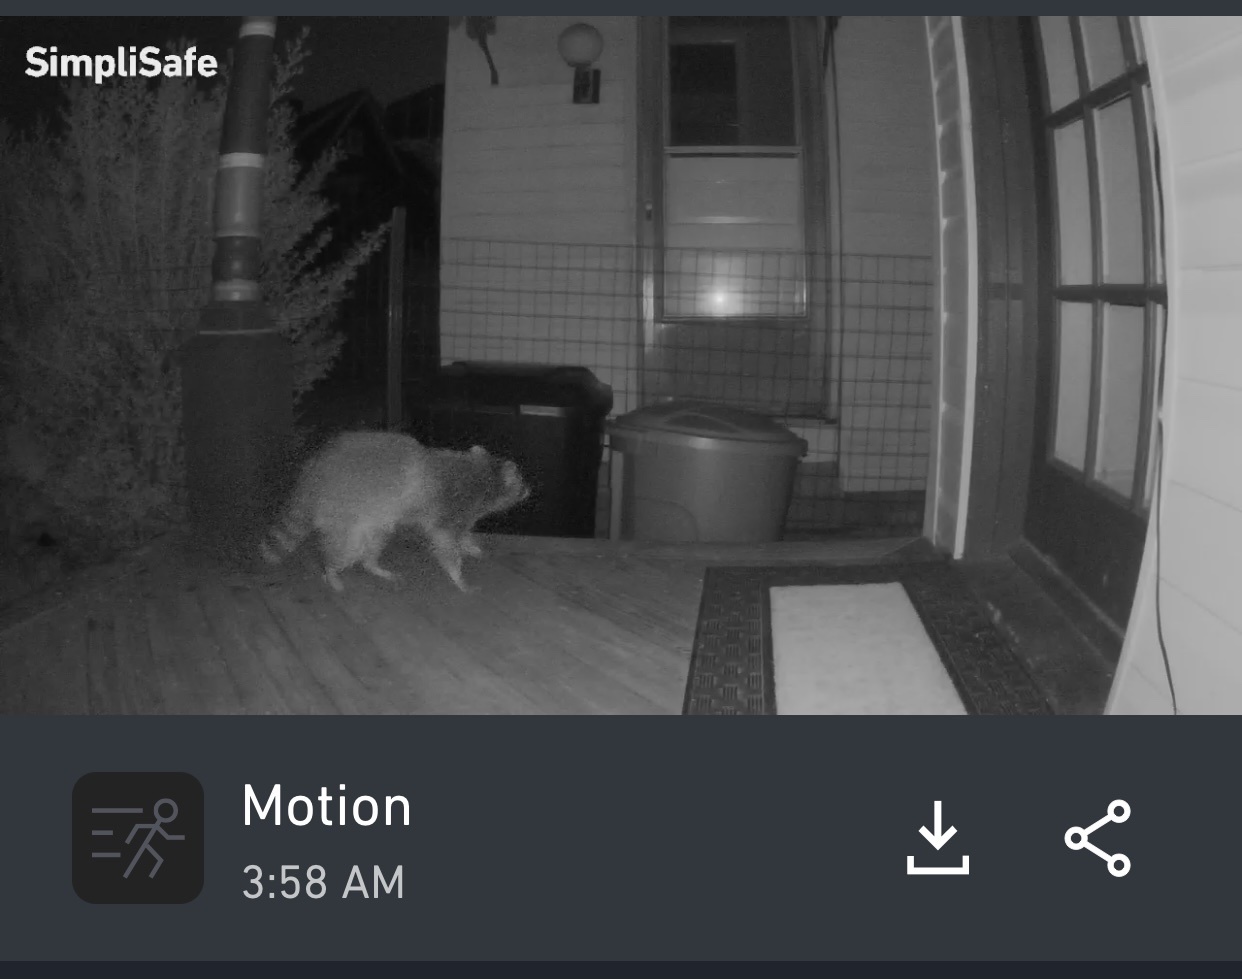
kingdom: Animalia
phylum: Chordata
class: Mammalia
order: Carnivora
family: Procyonidae
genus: Procyon
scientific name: Procyon lotor
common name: Raccoon
